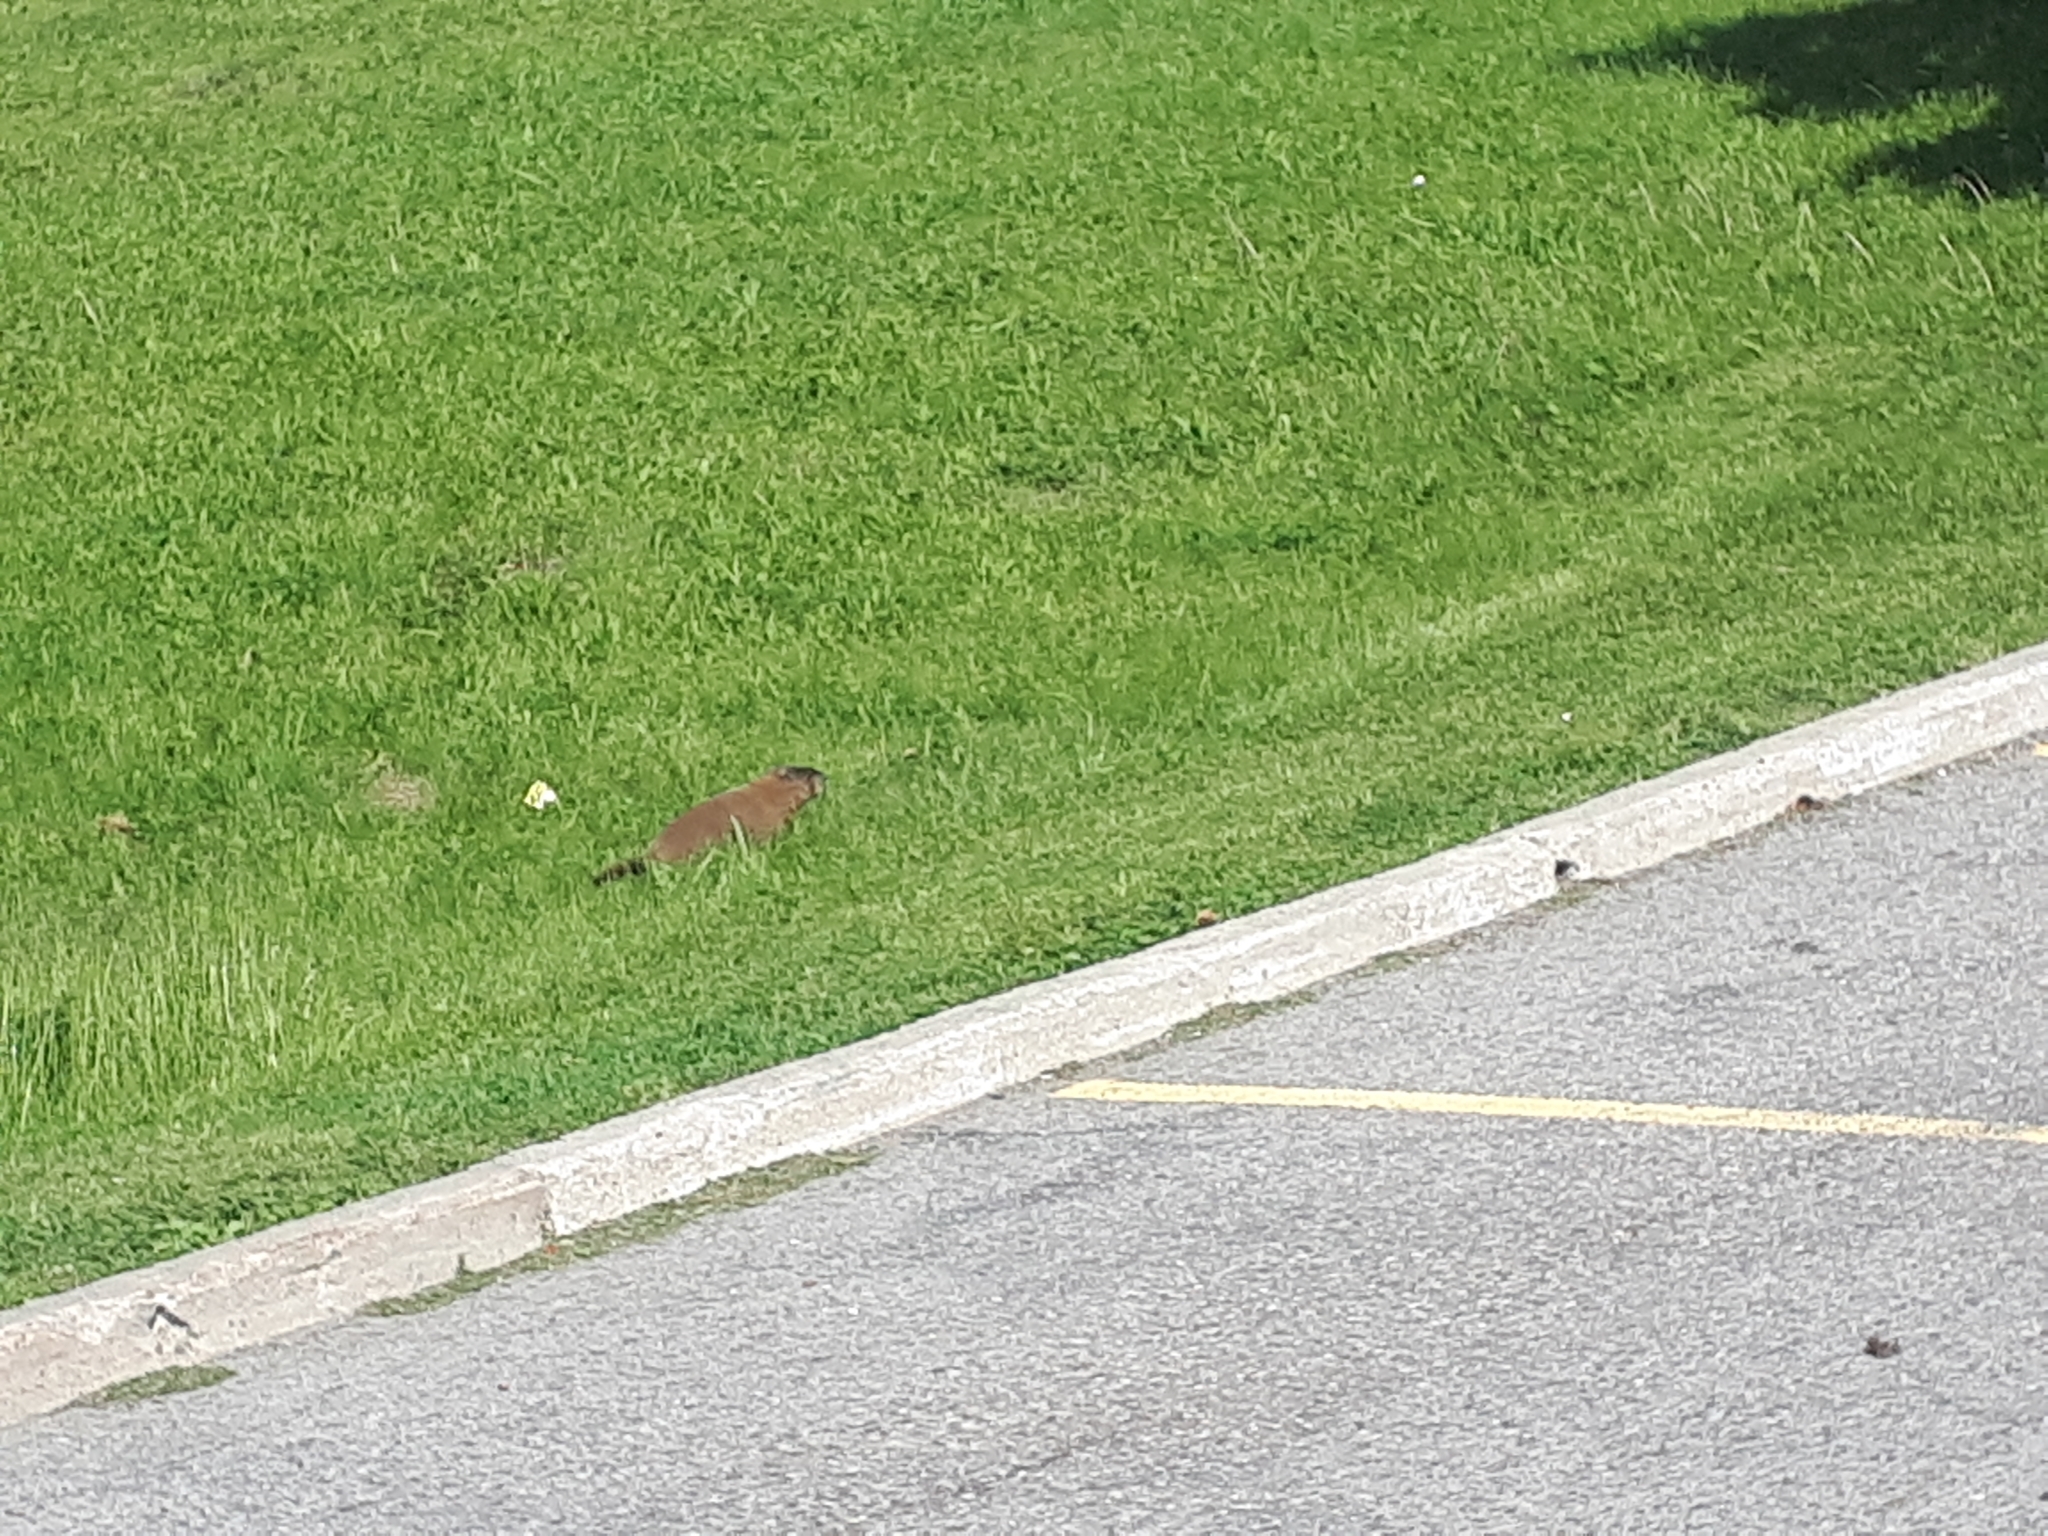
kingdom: Animalia
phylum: Chordata
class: Mammalia
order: Rodentia
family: Sciuridae
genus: Marmota
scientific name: Marmota monax
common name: Groundhog
